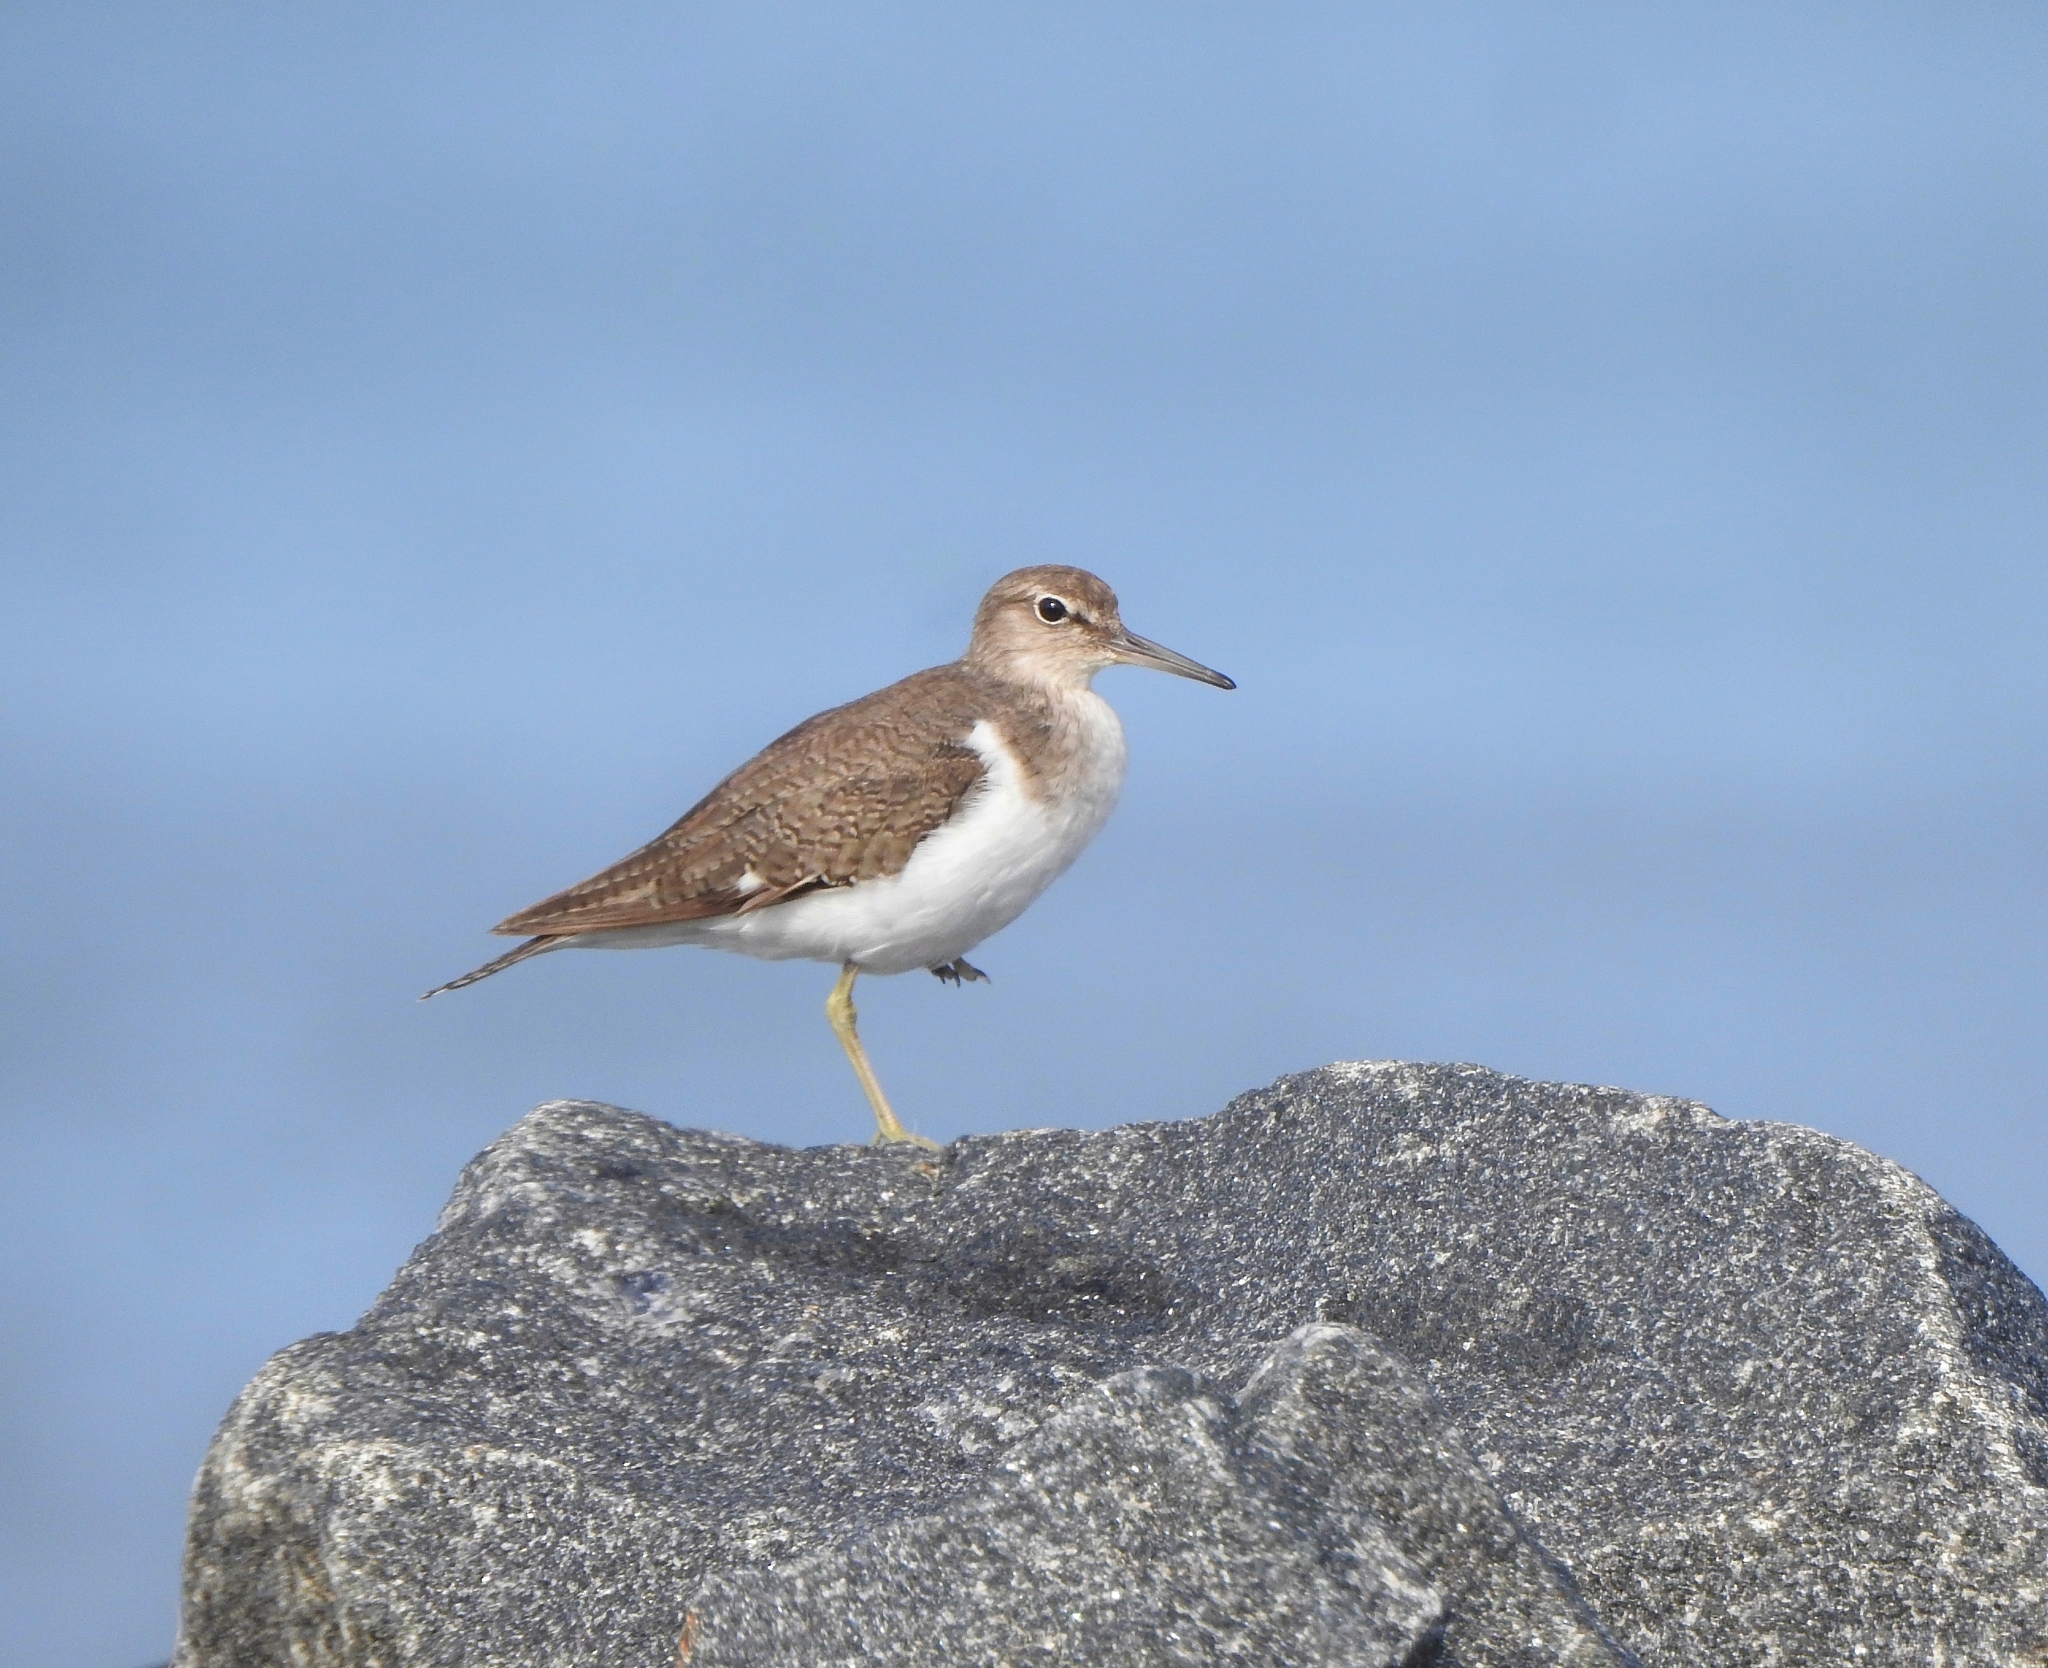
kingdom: Animalia
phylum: Chordata
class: Aves
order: Charadriiformes
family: Scolopacidae
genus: Actitis
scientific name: Actitis hypoleucos
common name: Common sandpiper
